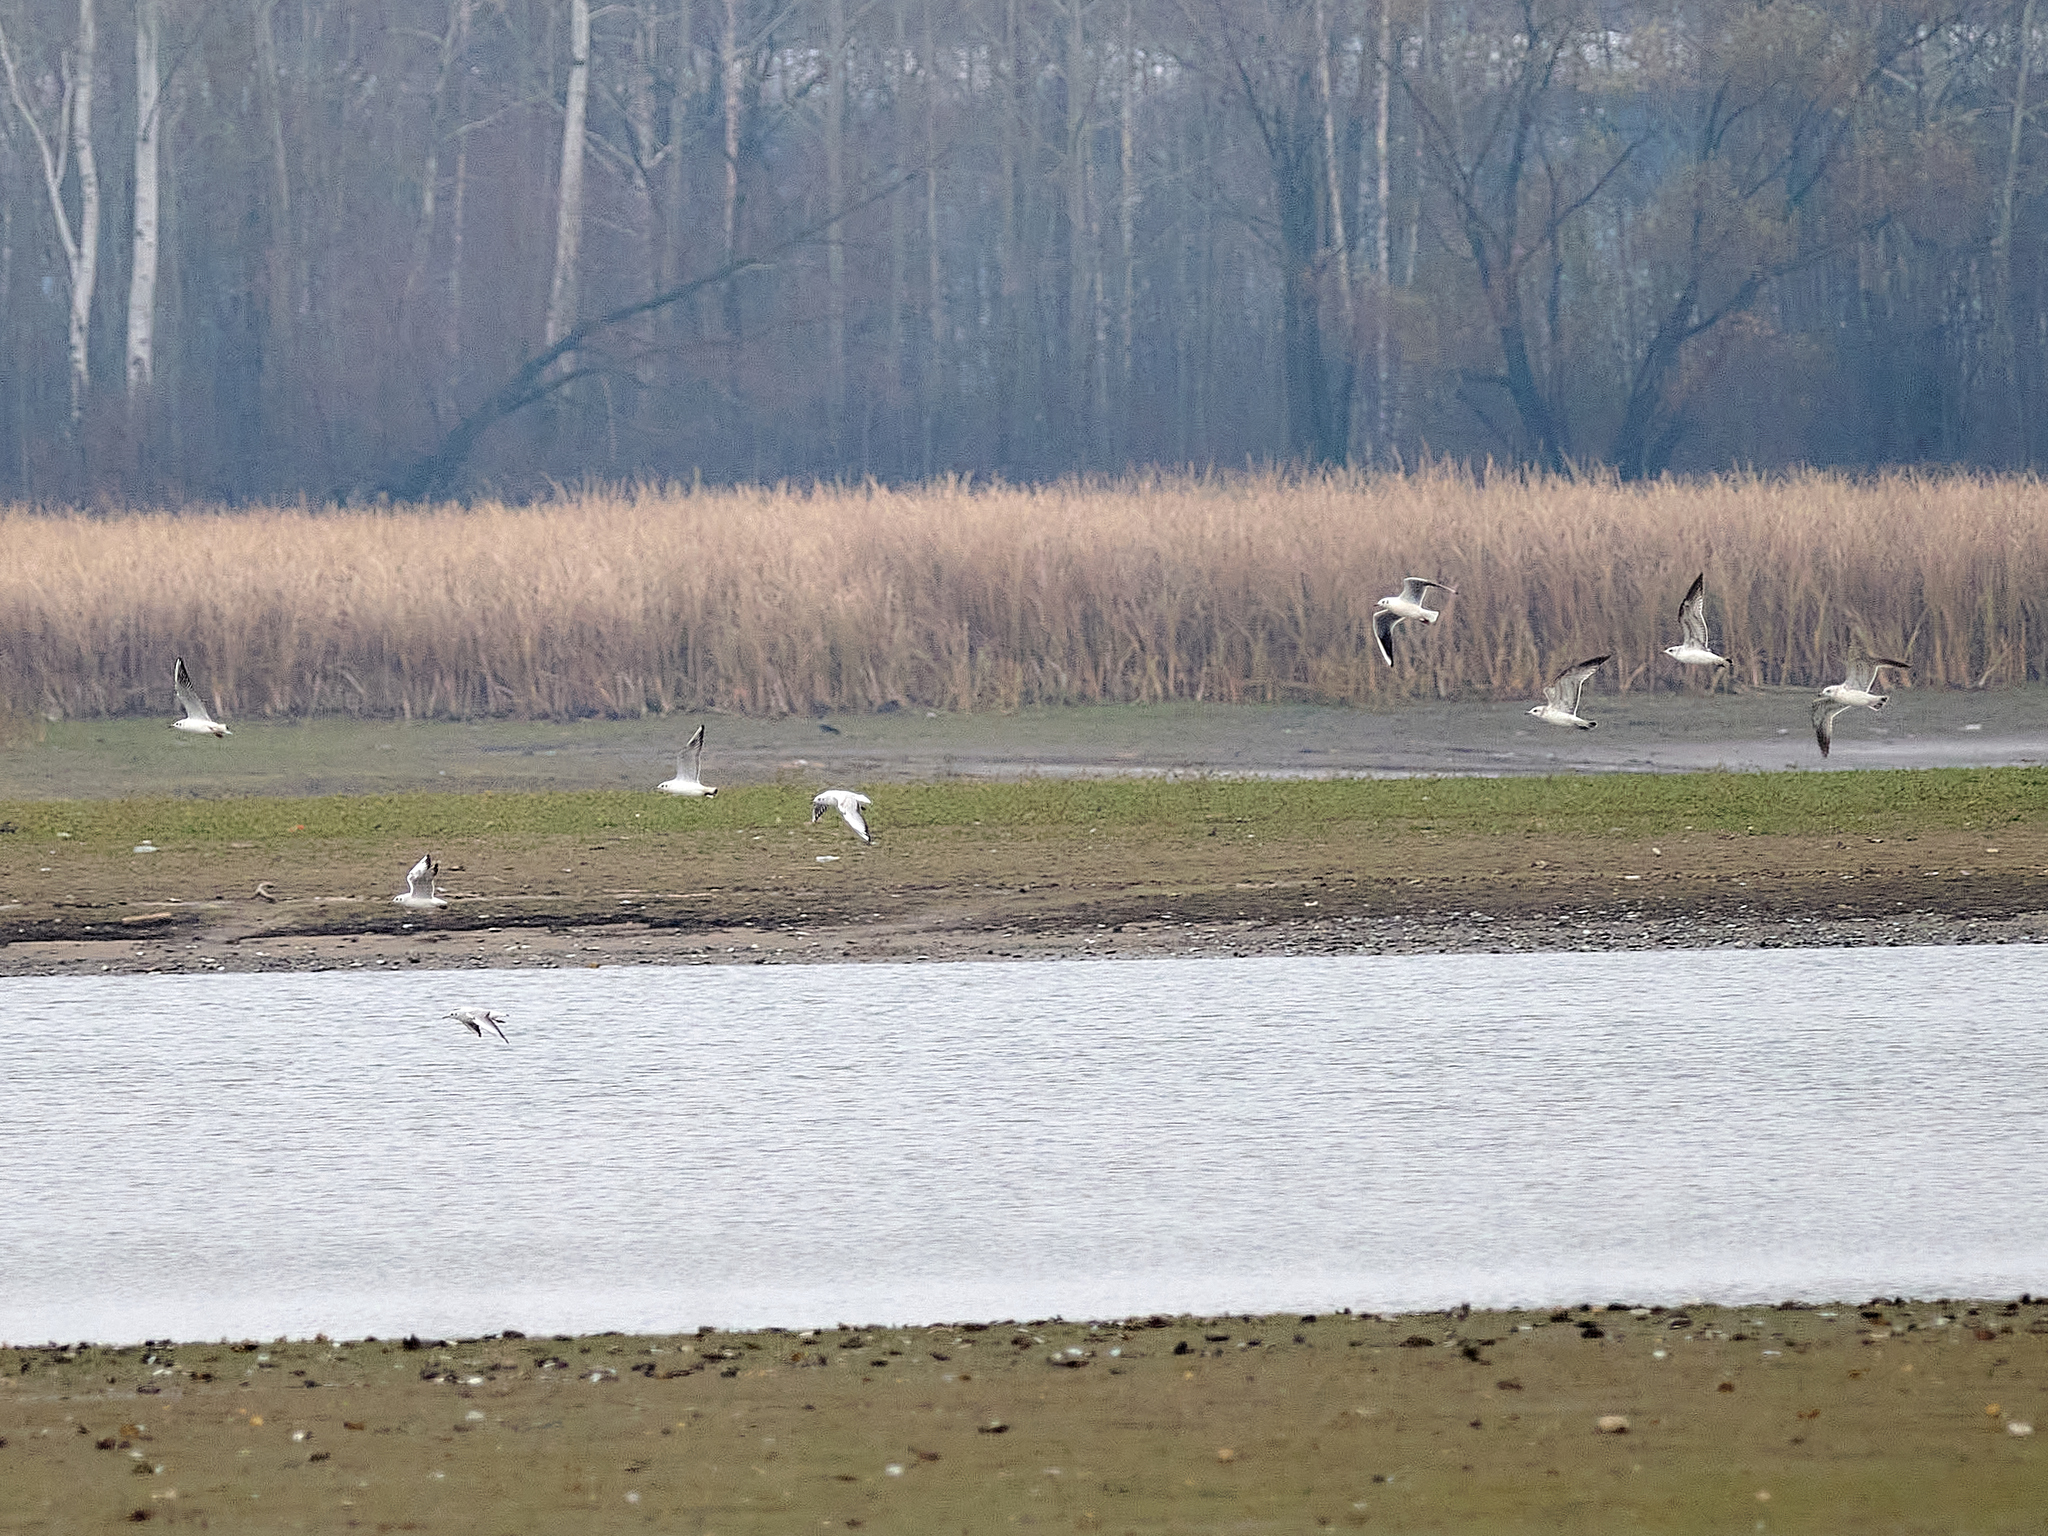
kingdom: Animalia
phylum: Chordata
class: Aves
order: Charadriiformes
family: Laridae
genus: Chroicocephalus
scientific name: Chroicocephalus ridibundus
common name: Black-headed gull
